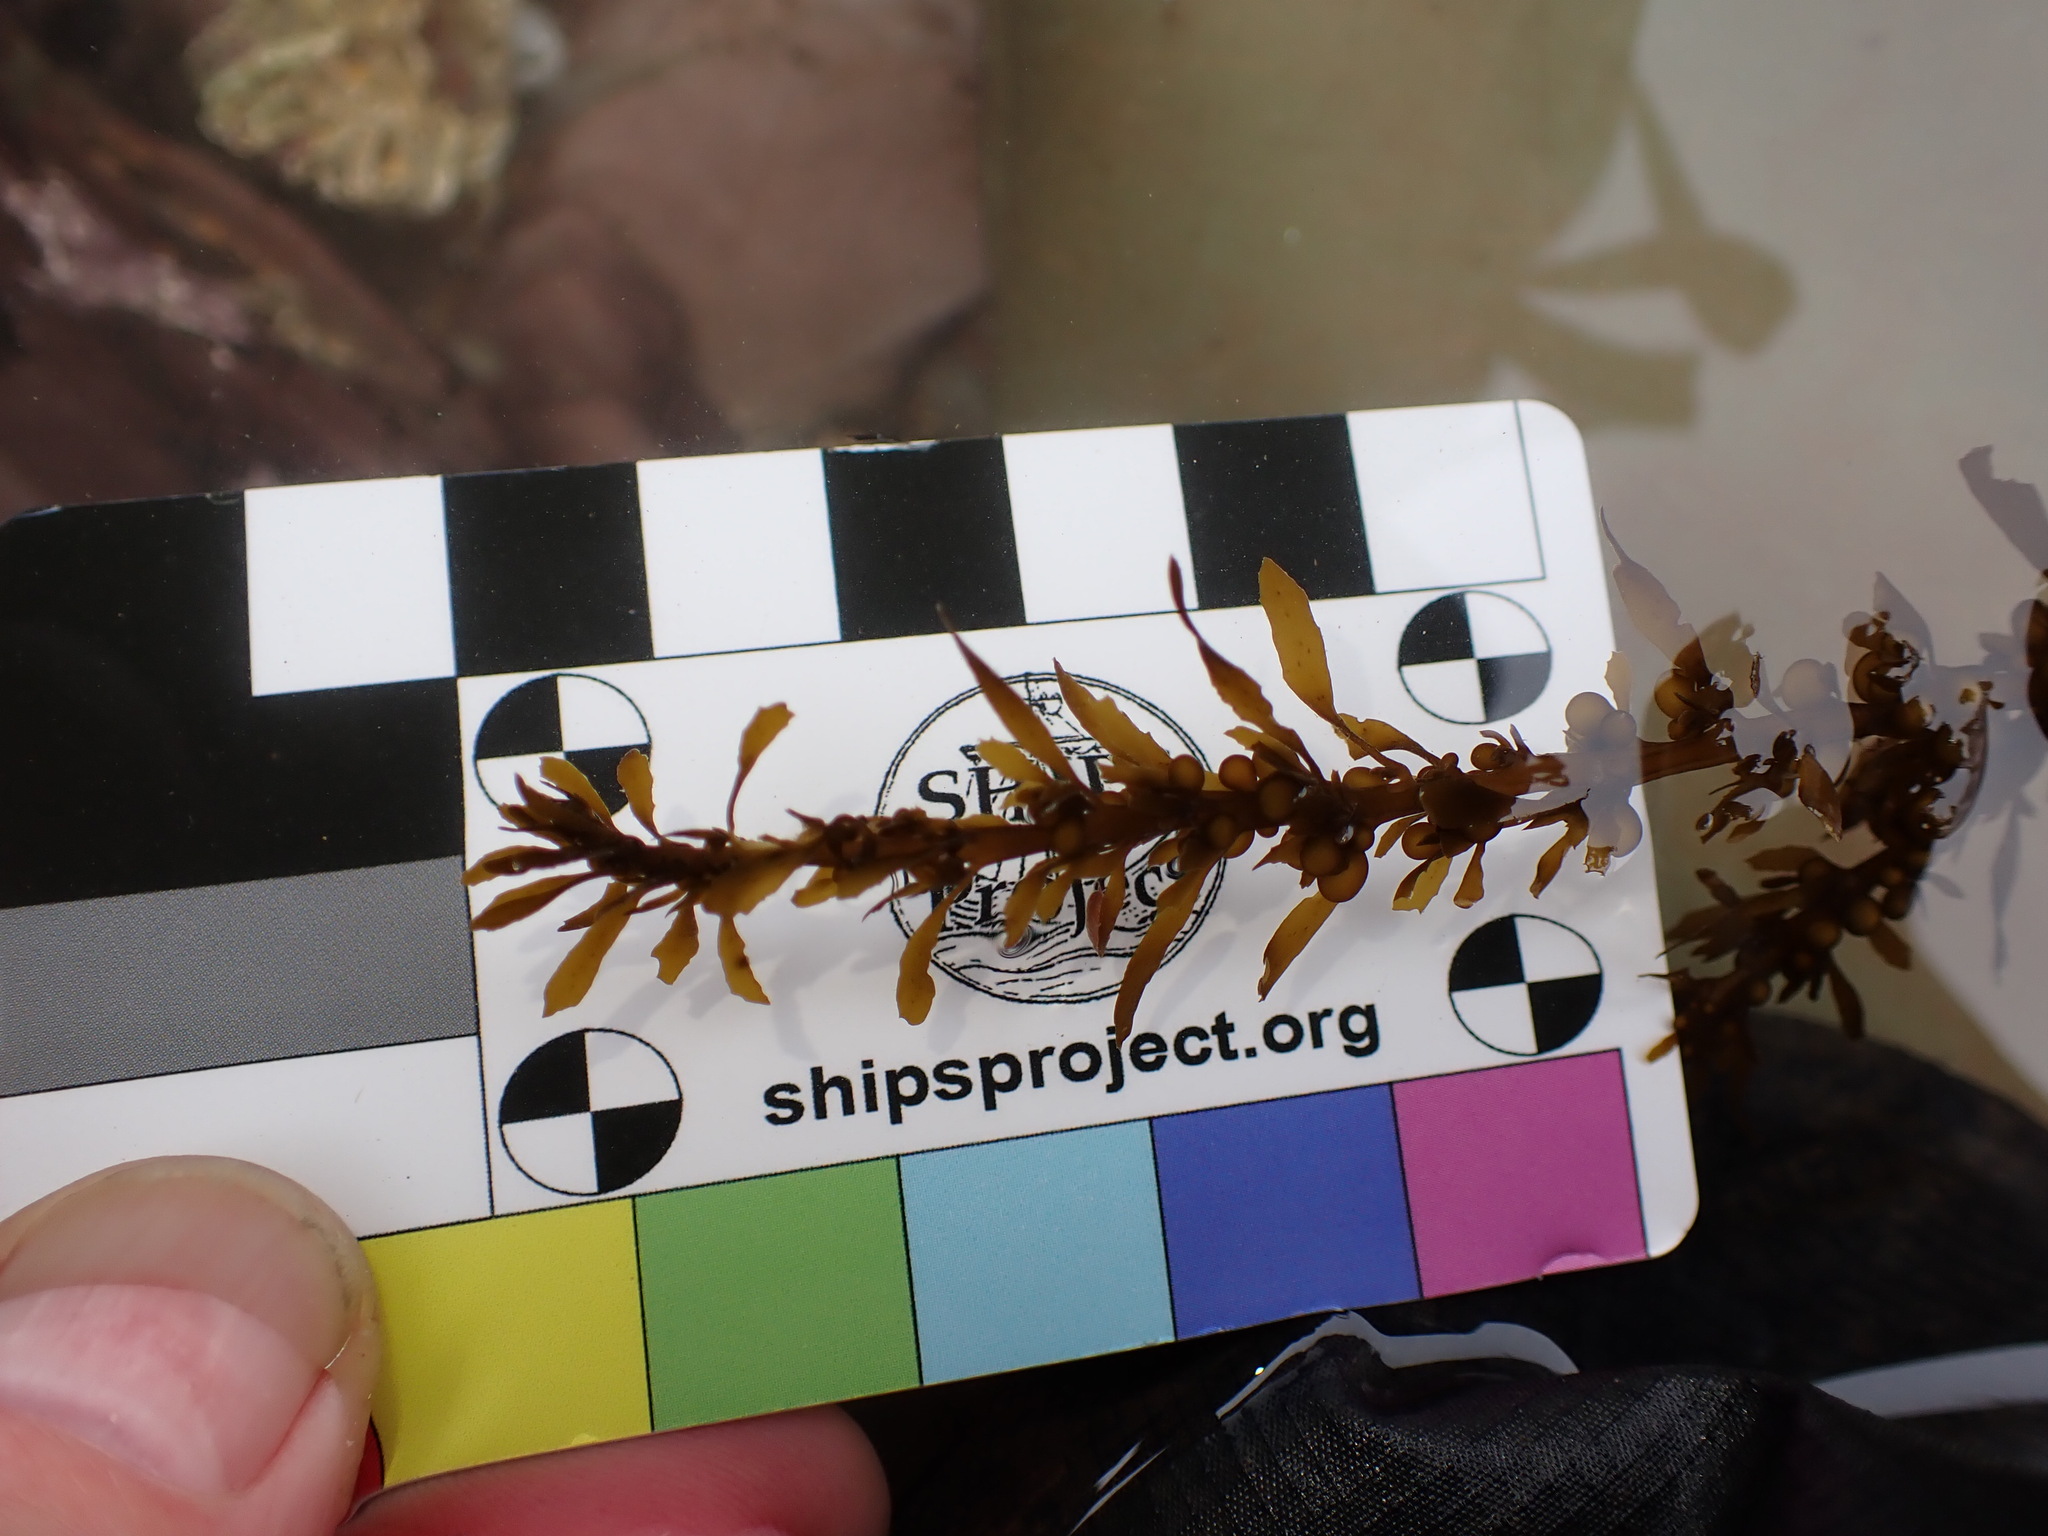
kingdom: Chromista
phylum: Ochrophyta
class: Phaeophyceae
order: Fucales
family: Sargassaceae
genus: Sargassum
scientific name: Sargassum muticum
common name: Japweed
